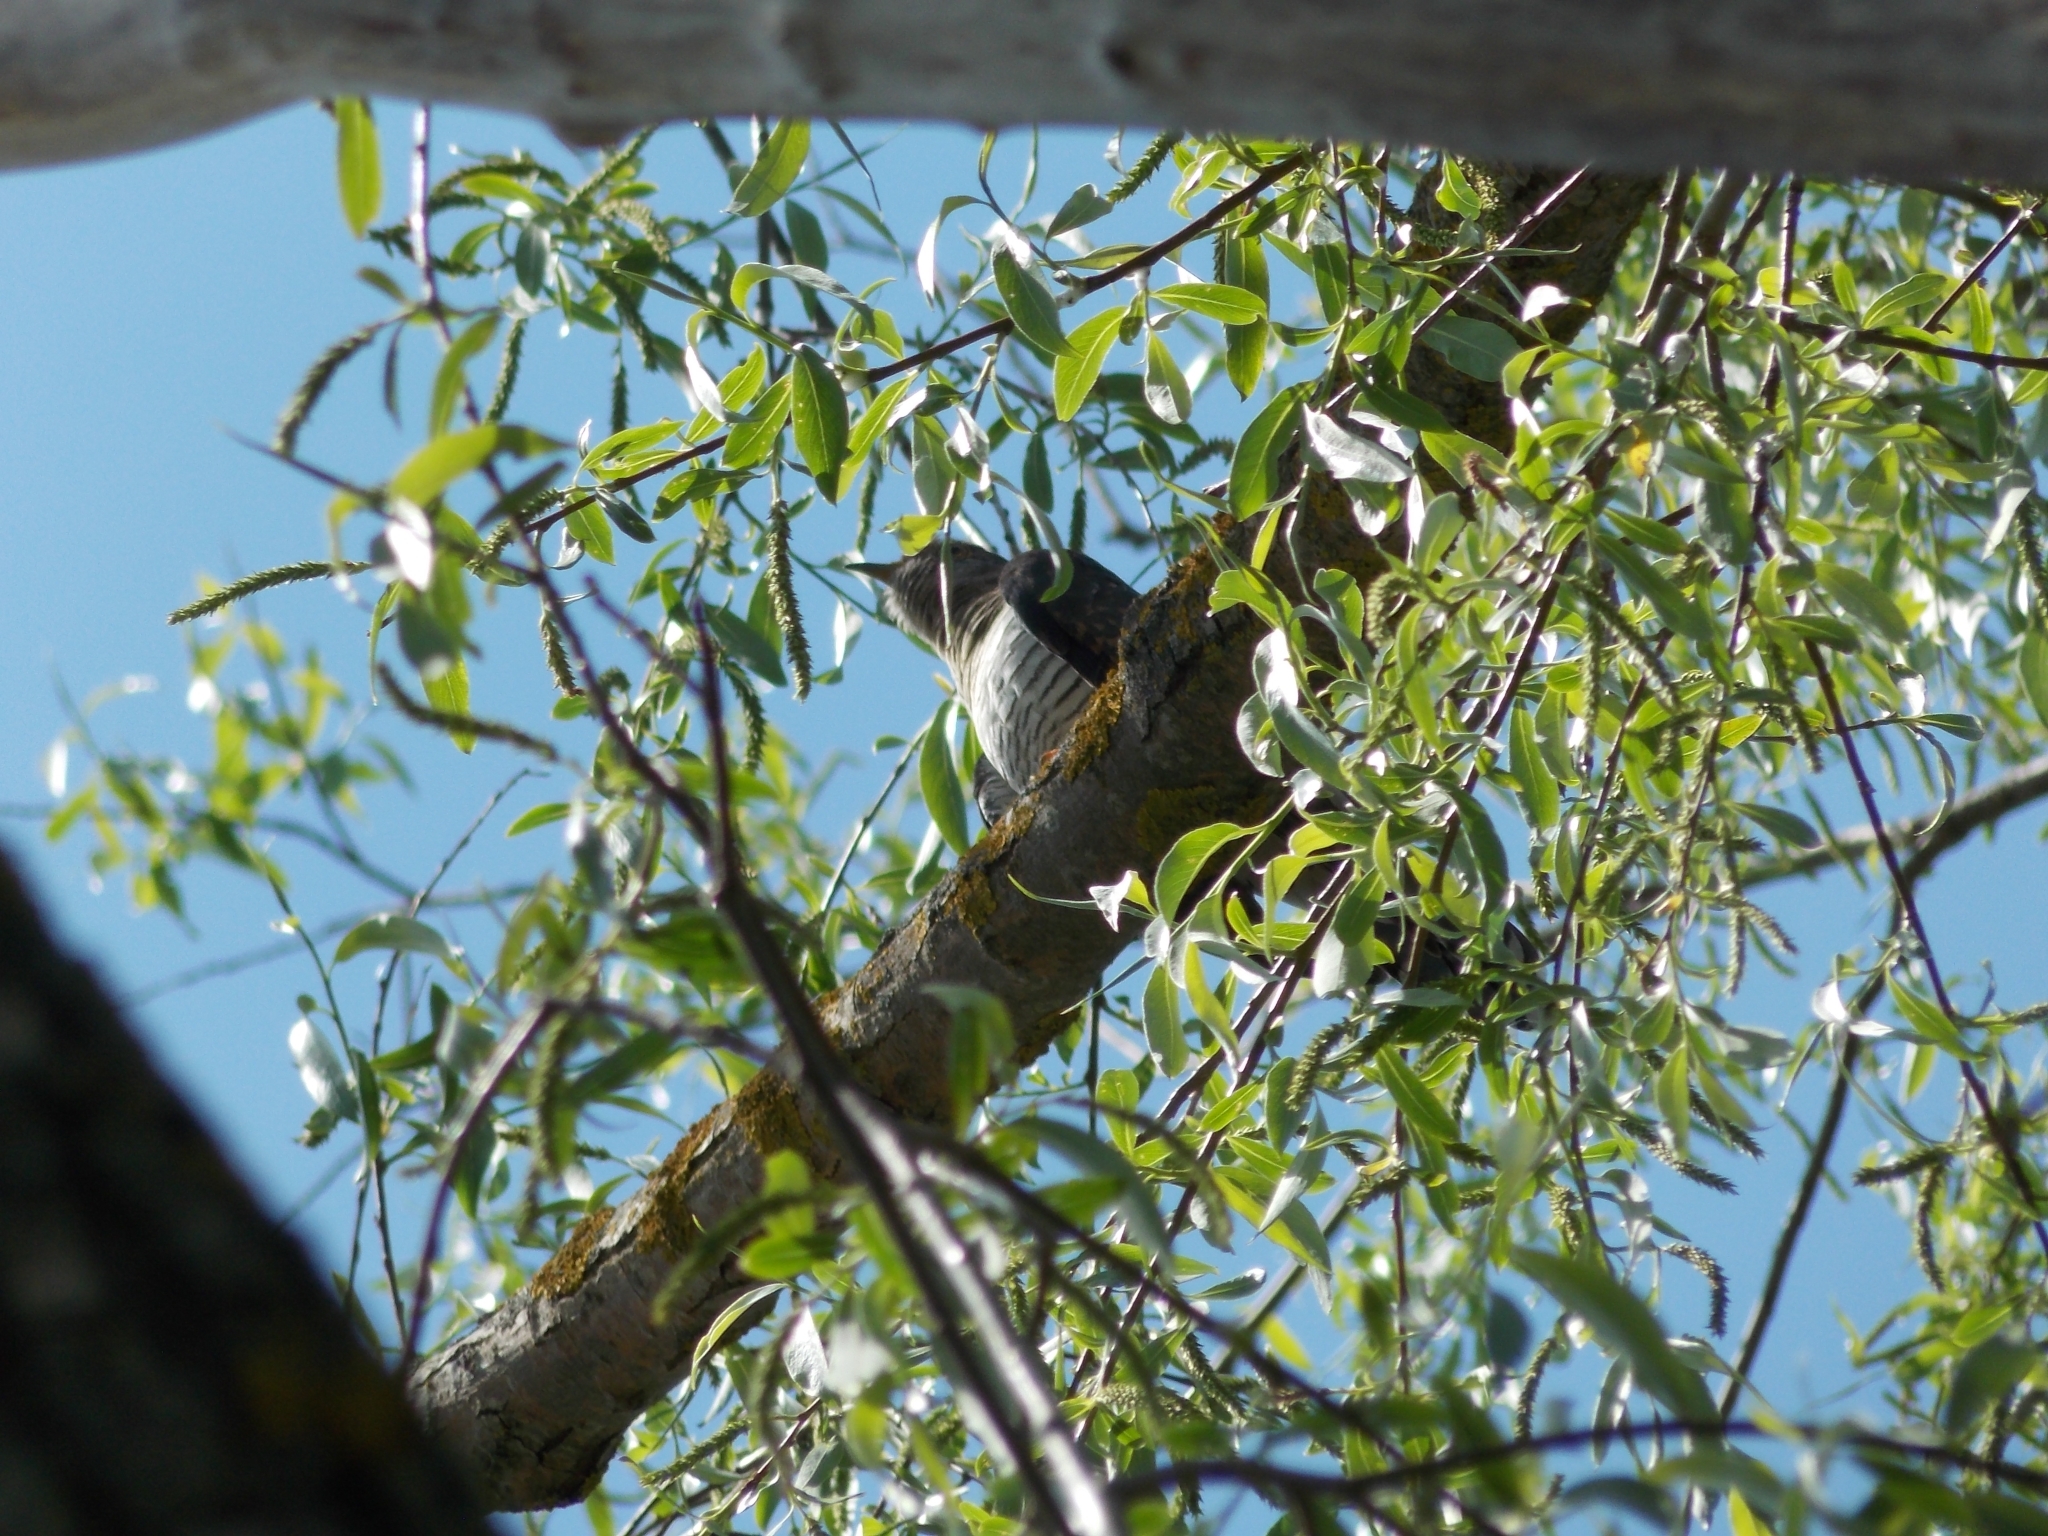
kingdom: Animalia
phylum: Chordata
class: Aves
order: Cuculiformes
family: Cuculidae
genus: Cuculus
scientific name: Cuculus canorus
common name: Common cuckoo
